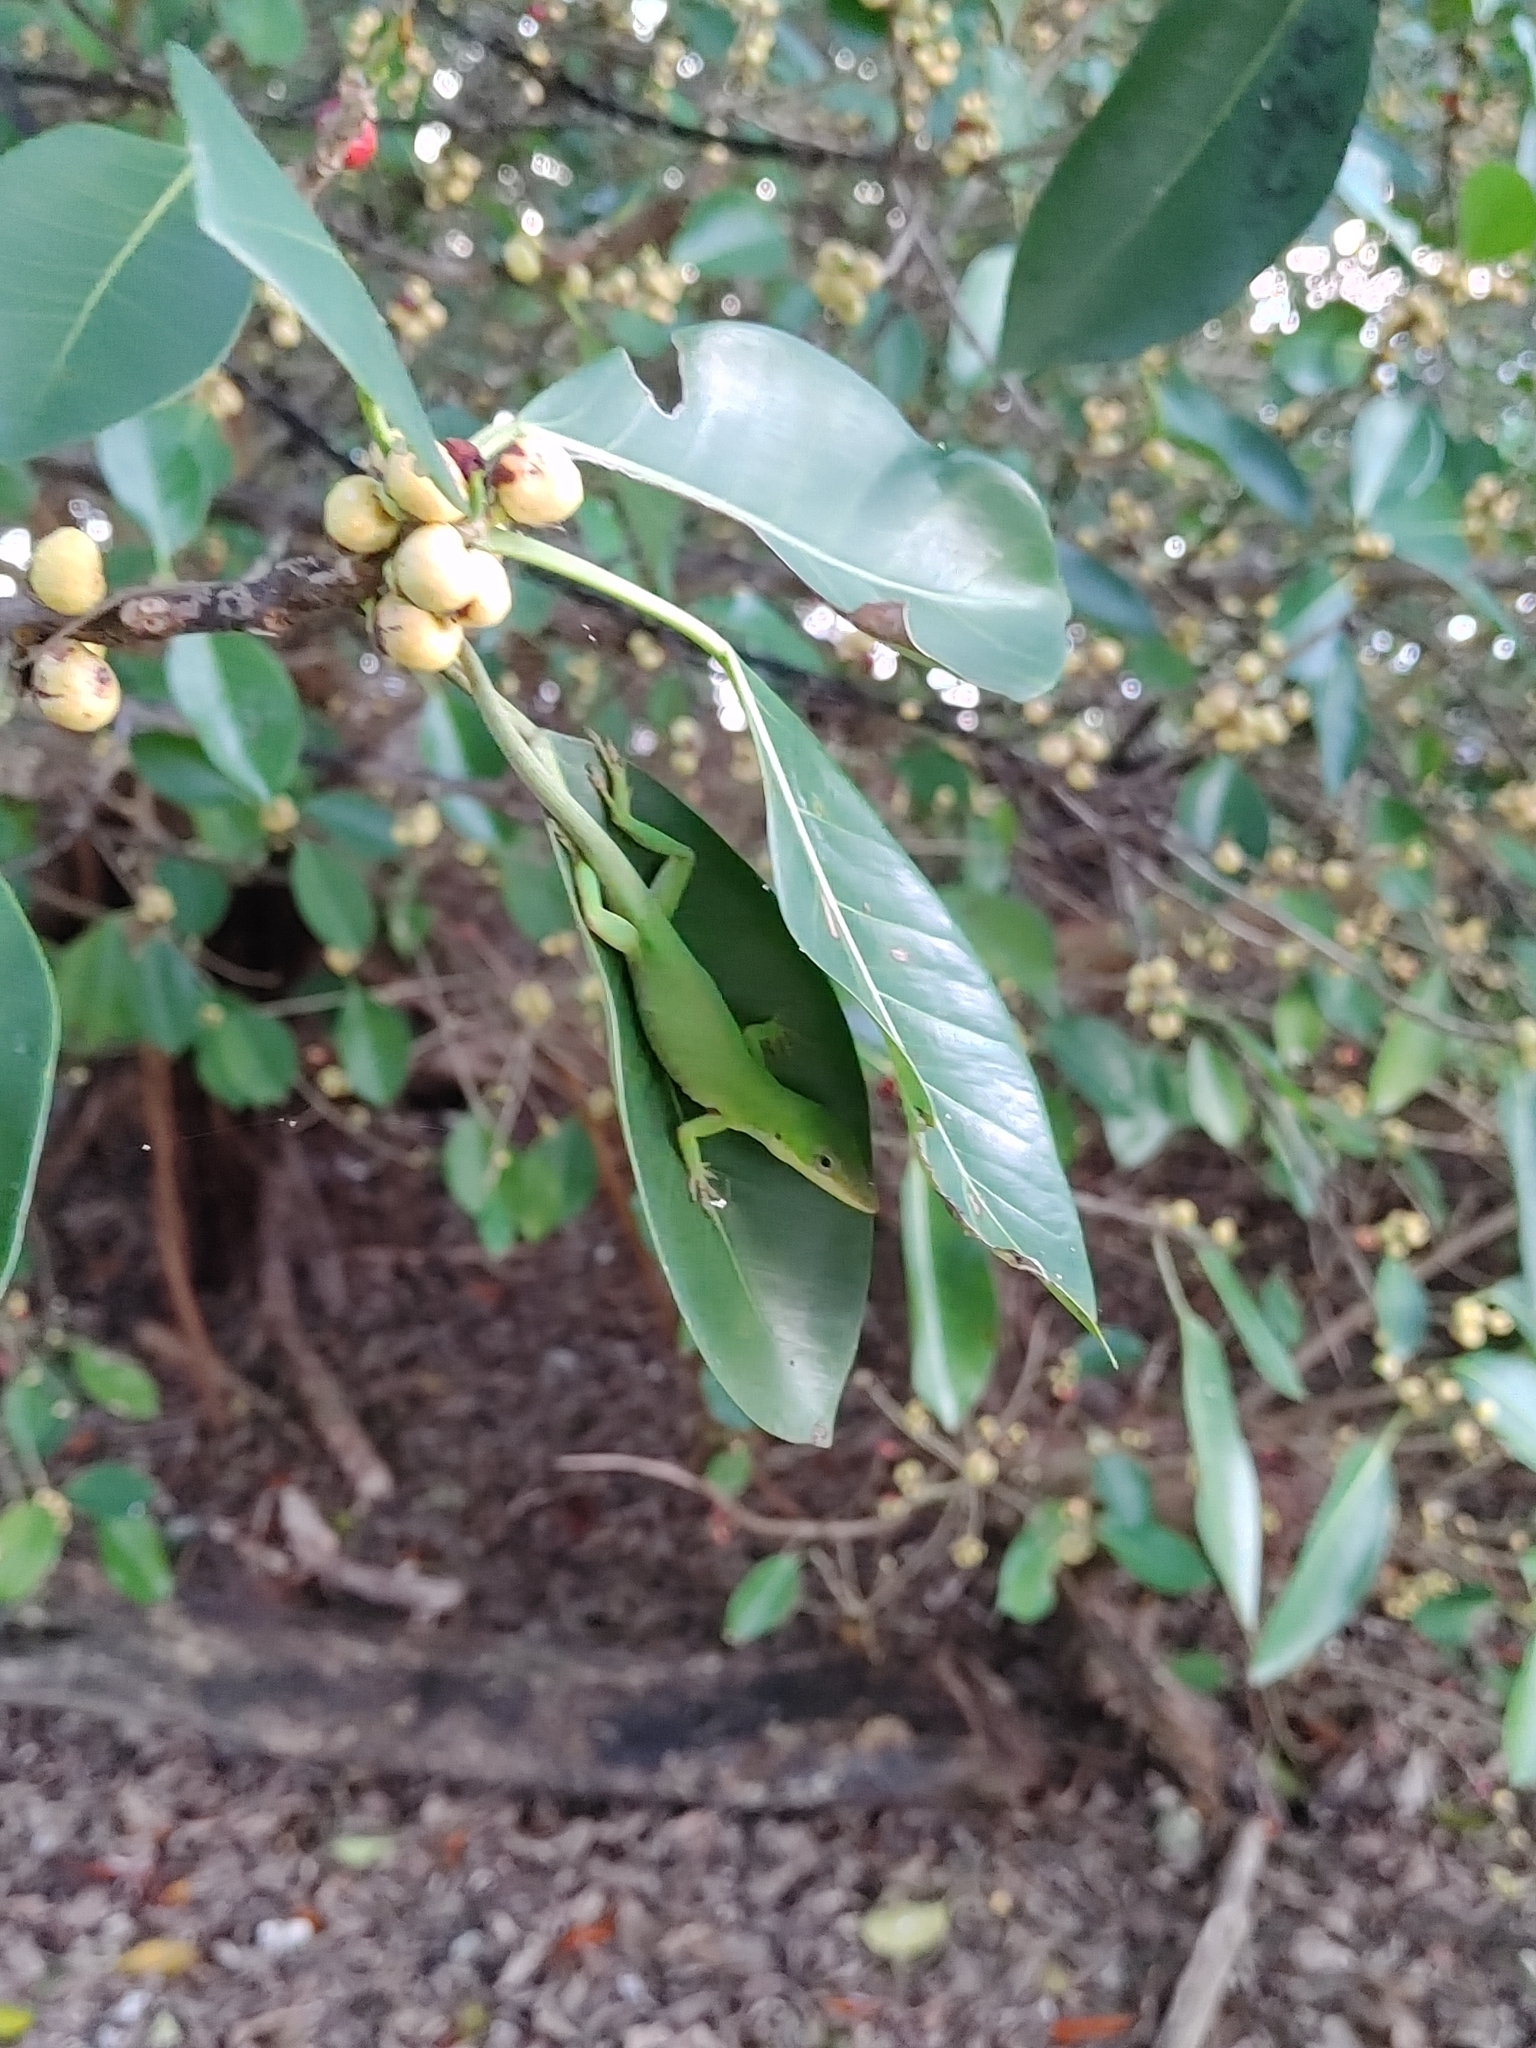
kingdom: Animalia
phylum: Chordata
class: Squamata
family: Dactyloidae
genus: Anolis
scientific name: Anolis carolinensis
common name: Green anole
